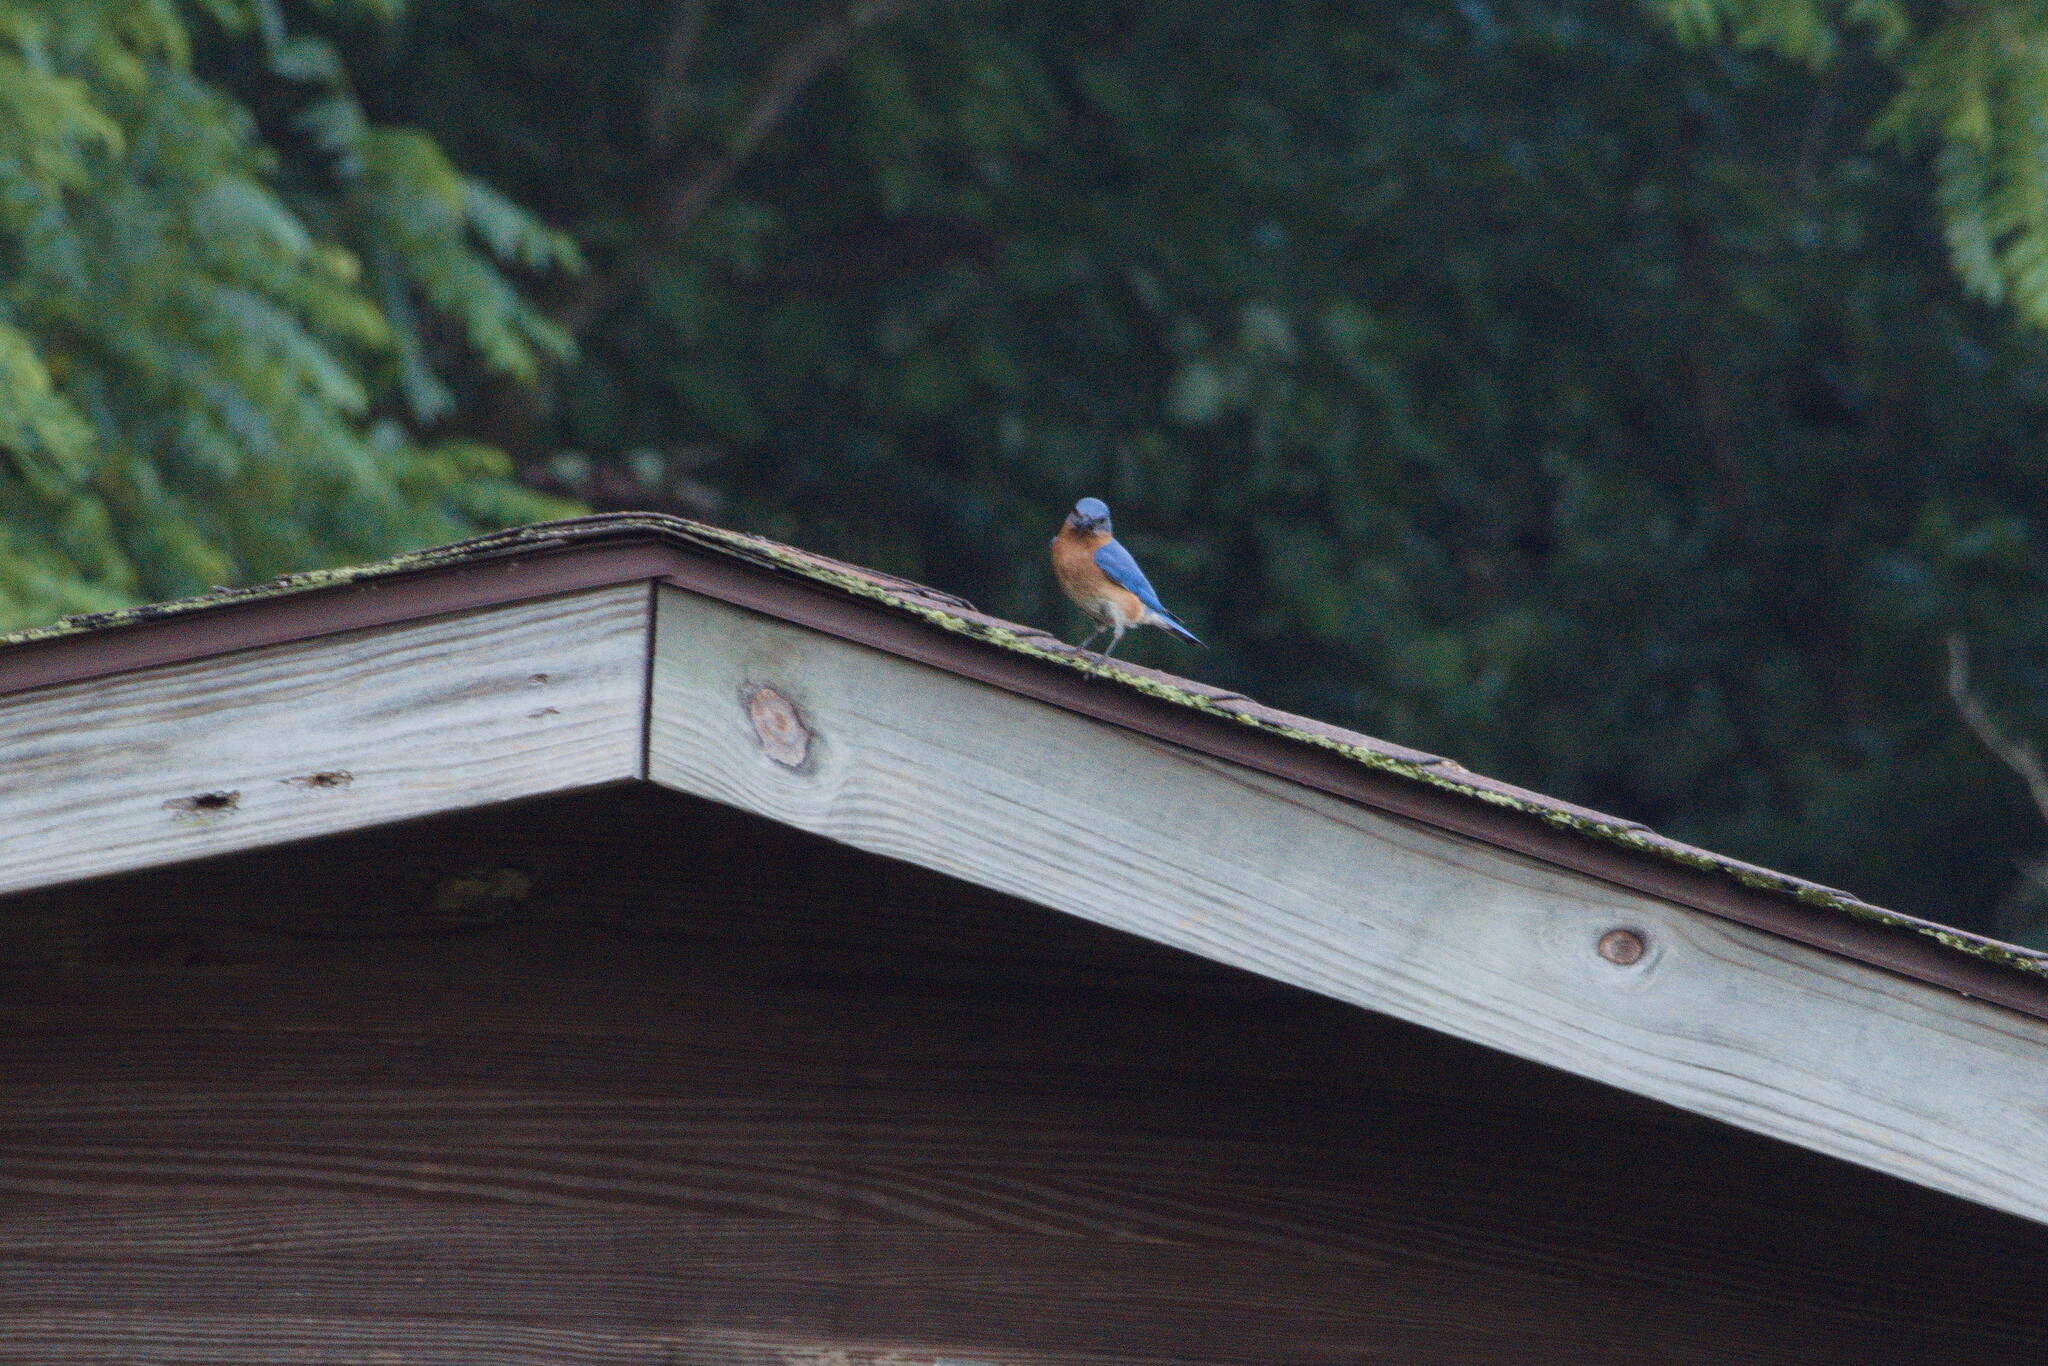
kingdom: Animalia
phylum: Chordata
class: Aves
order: Passeriformes
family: Turdidae
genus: Sialia
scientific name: Sialia sialis
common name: Eastern bluebird
